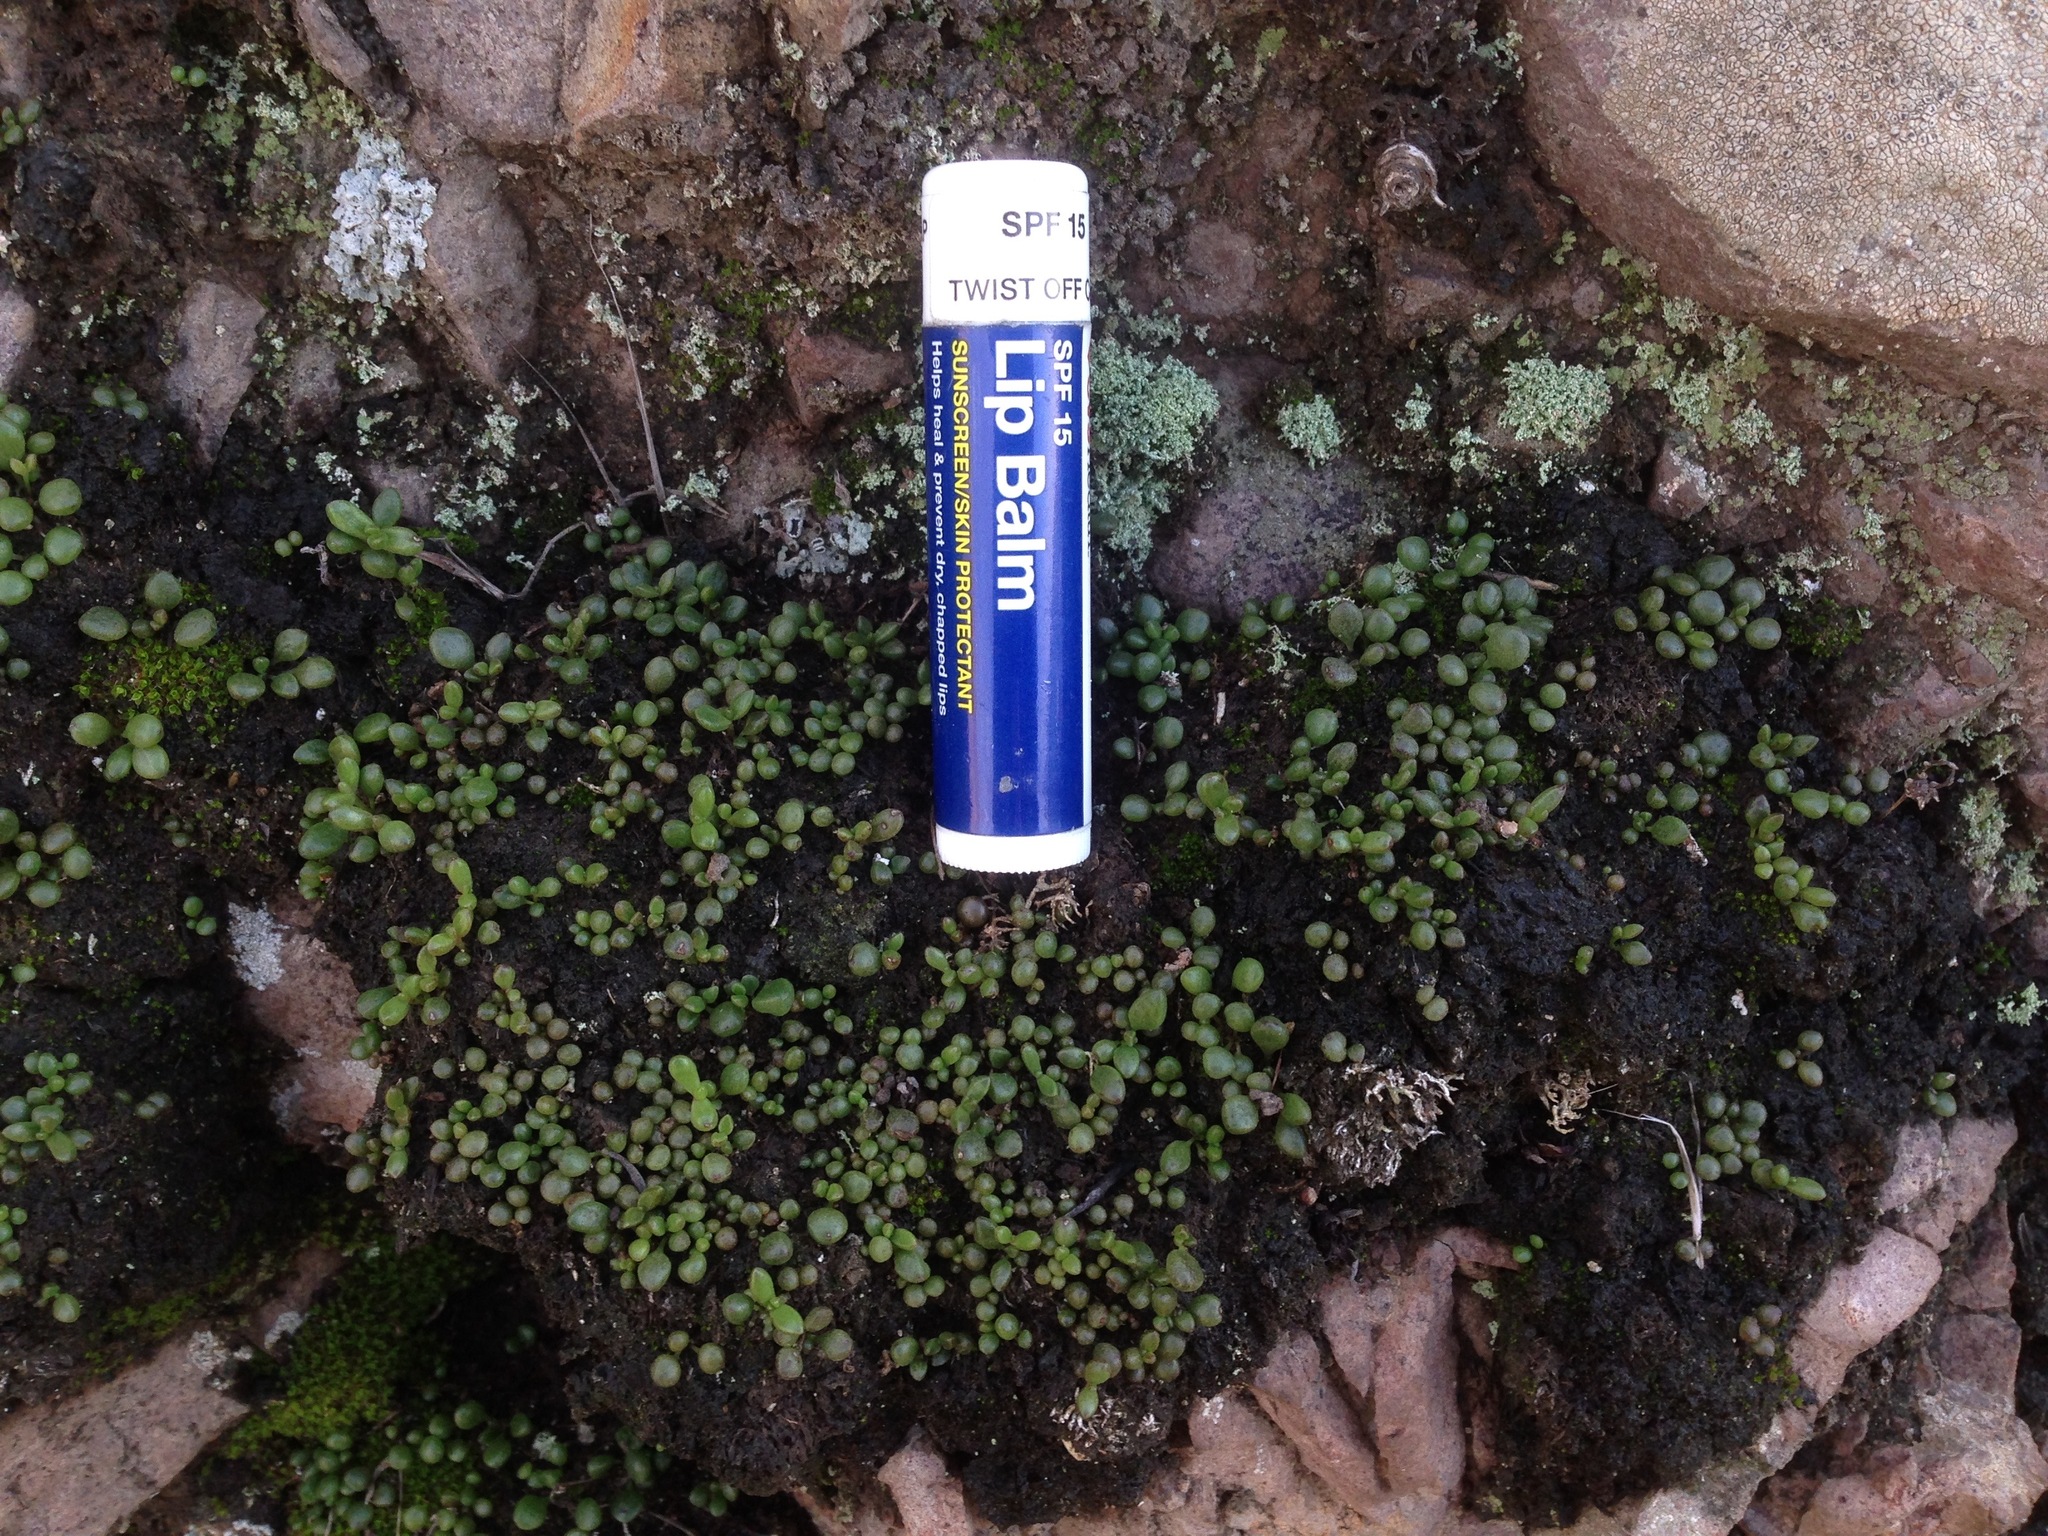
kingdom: Plantae
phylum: Tracheophyta
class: Magnoliopsida
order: Saxifragales
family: Crassulaceae
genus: Dudleya
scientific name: Dudleya blochmaniae
